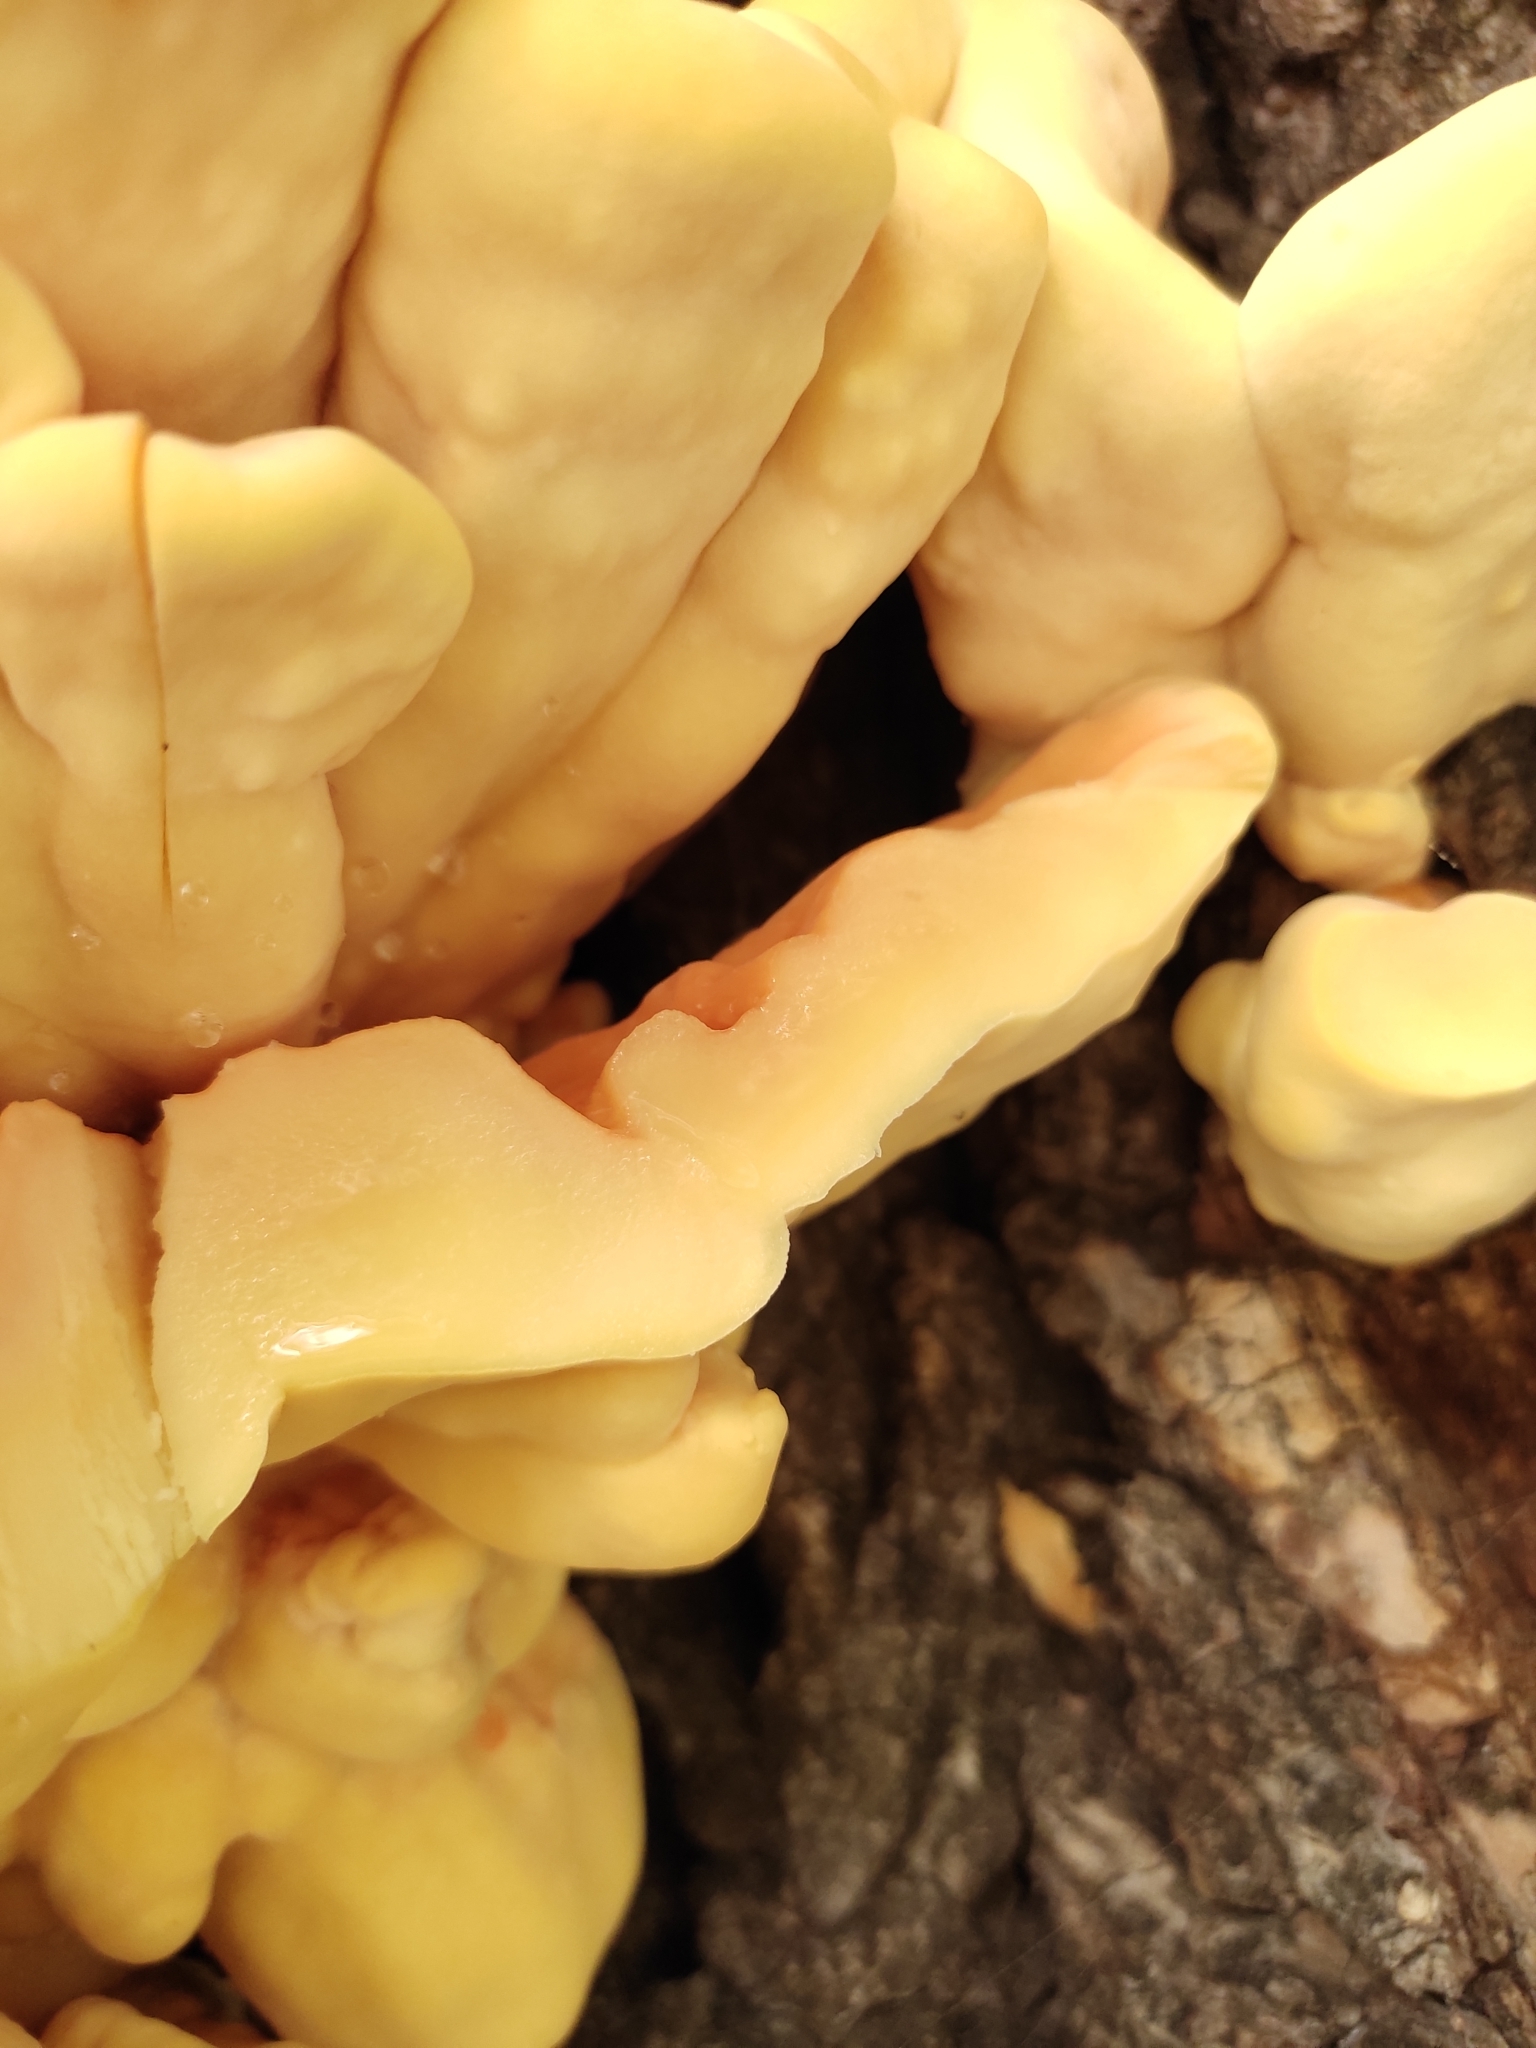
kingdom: Fungi
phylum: Basidiomycota
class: Agaricomycetes
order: Polyporales
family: Laetiporaceae
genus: Laetiporus
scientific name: Laetiporus sulphureus
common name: Chicken of the woods
